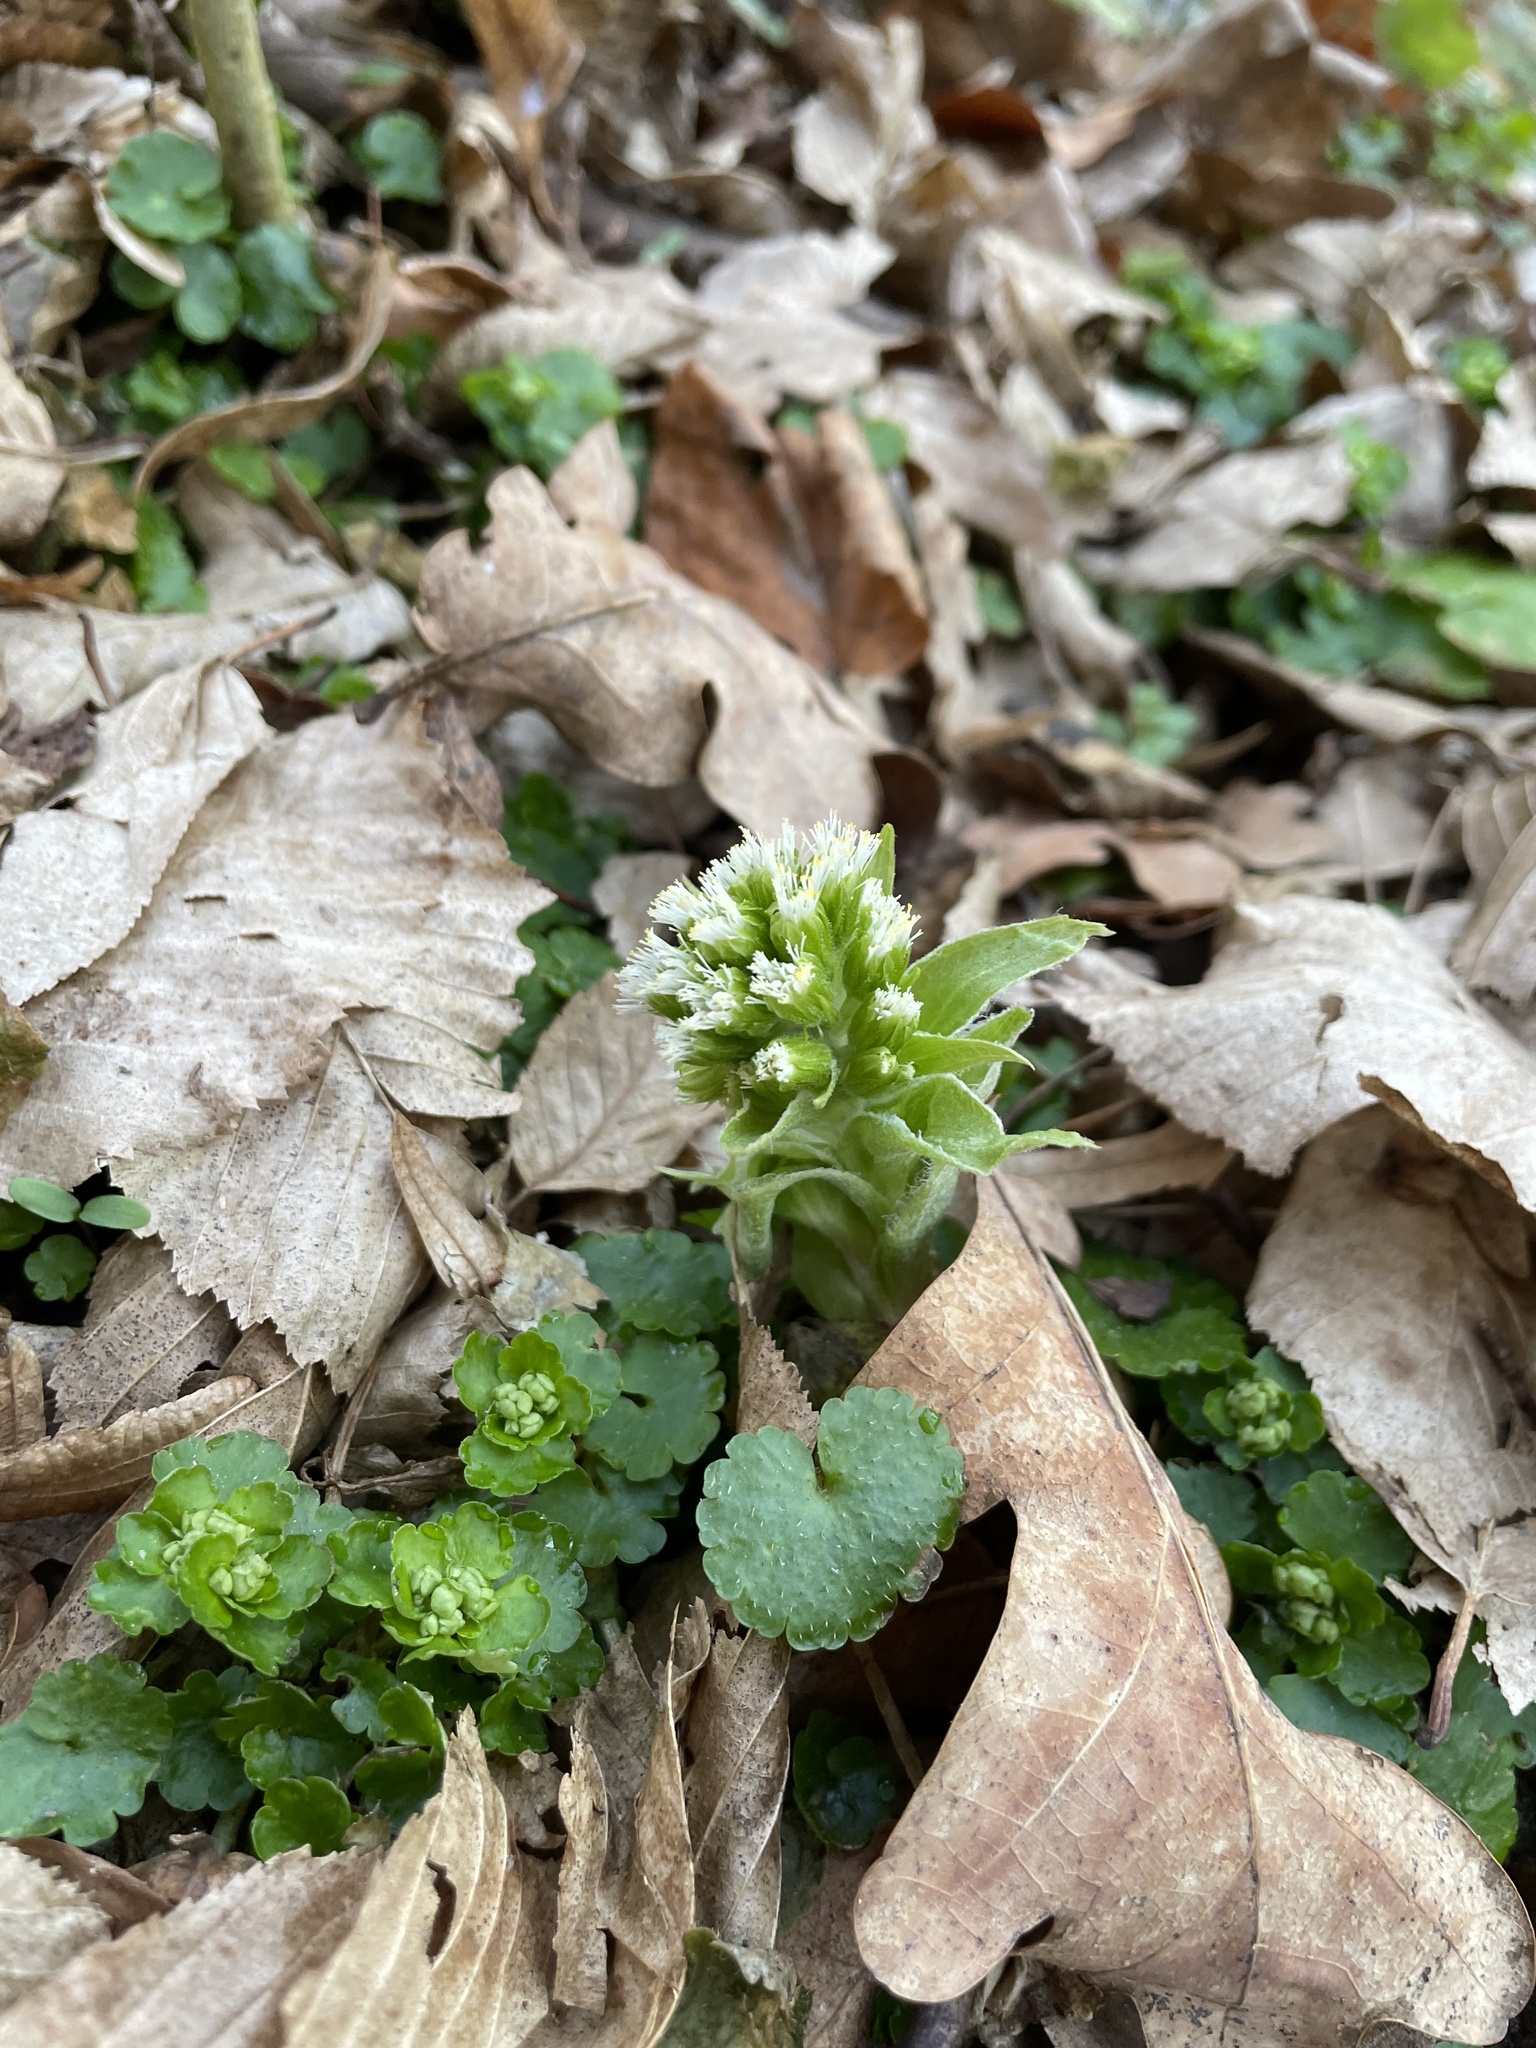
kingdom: Plantae
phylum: Tracheophyta
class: Magnoliopsida
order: Asterales
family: Asteraceae
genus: Petasites
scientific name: Petasites albus
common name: White butterbur
